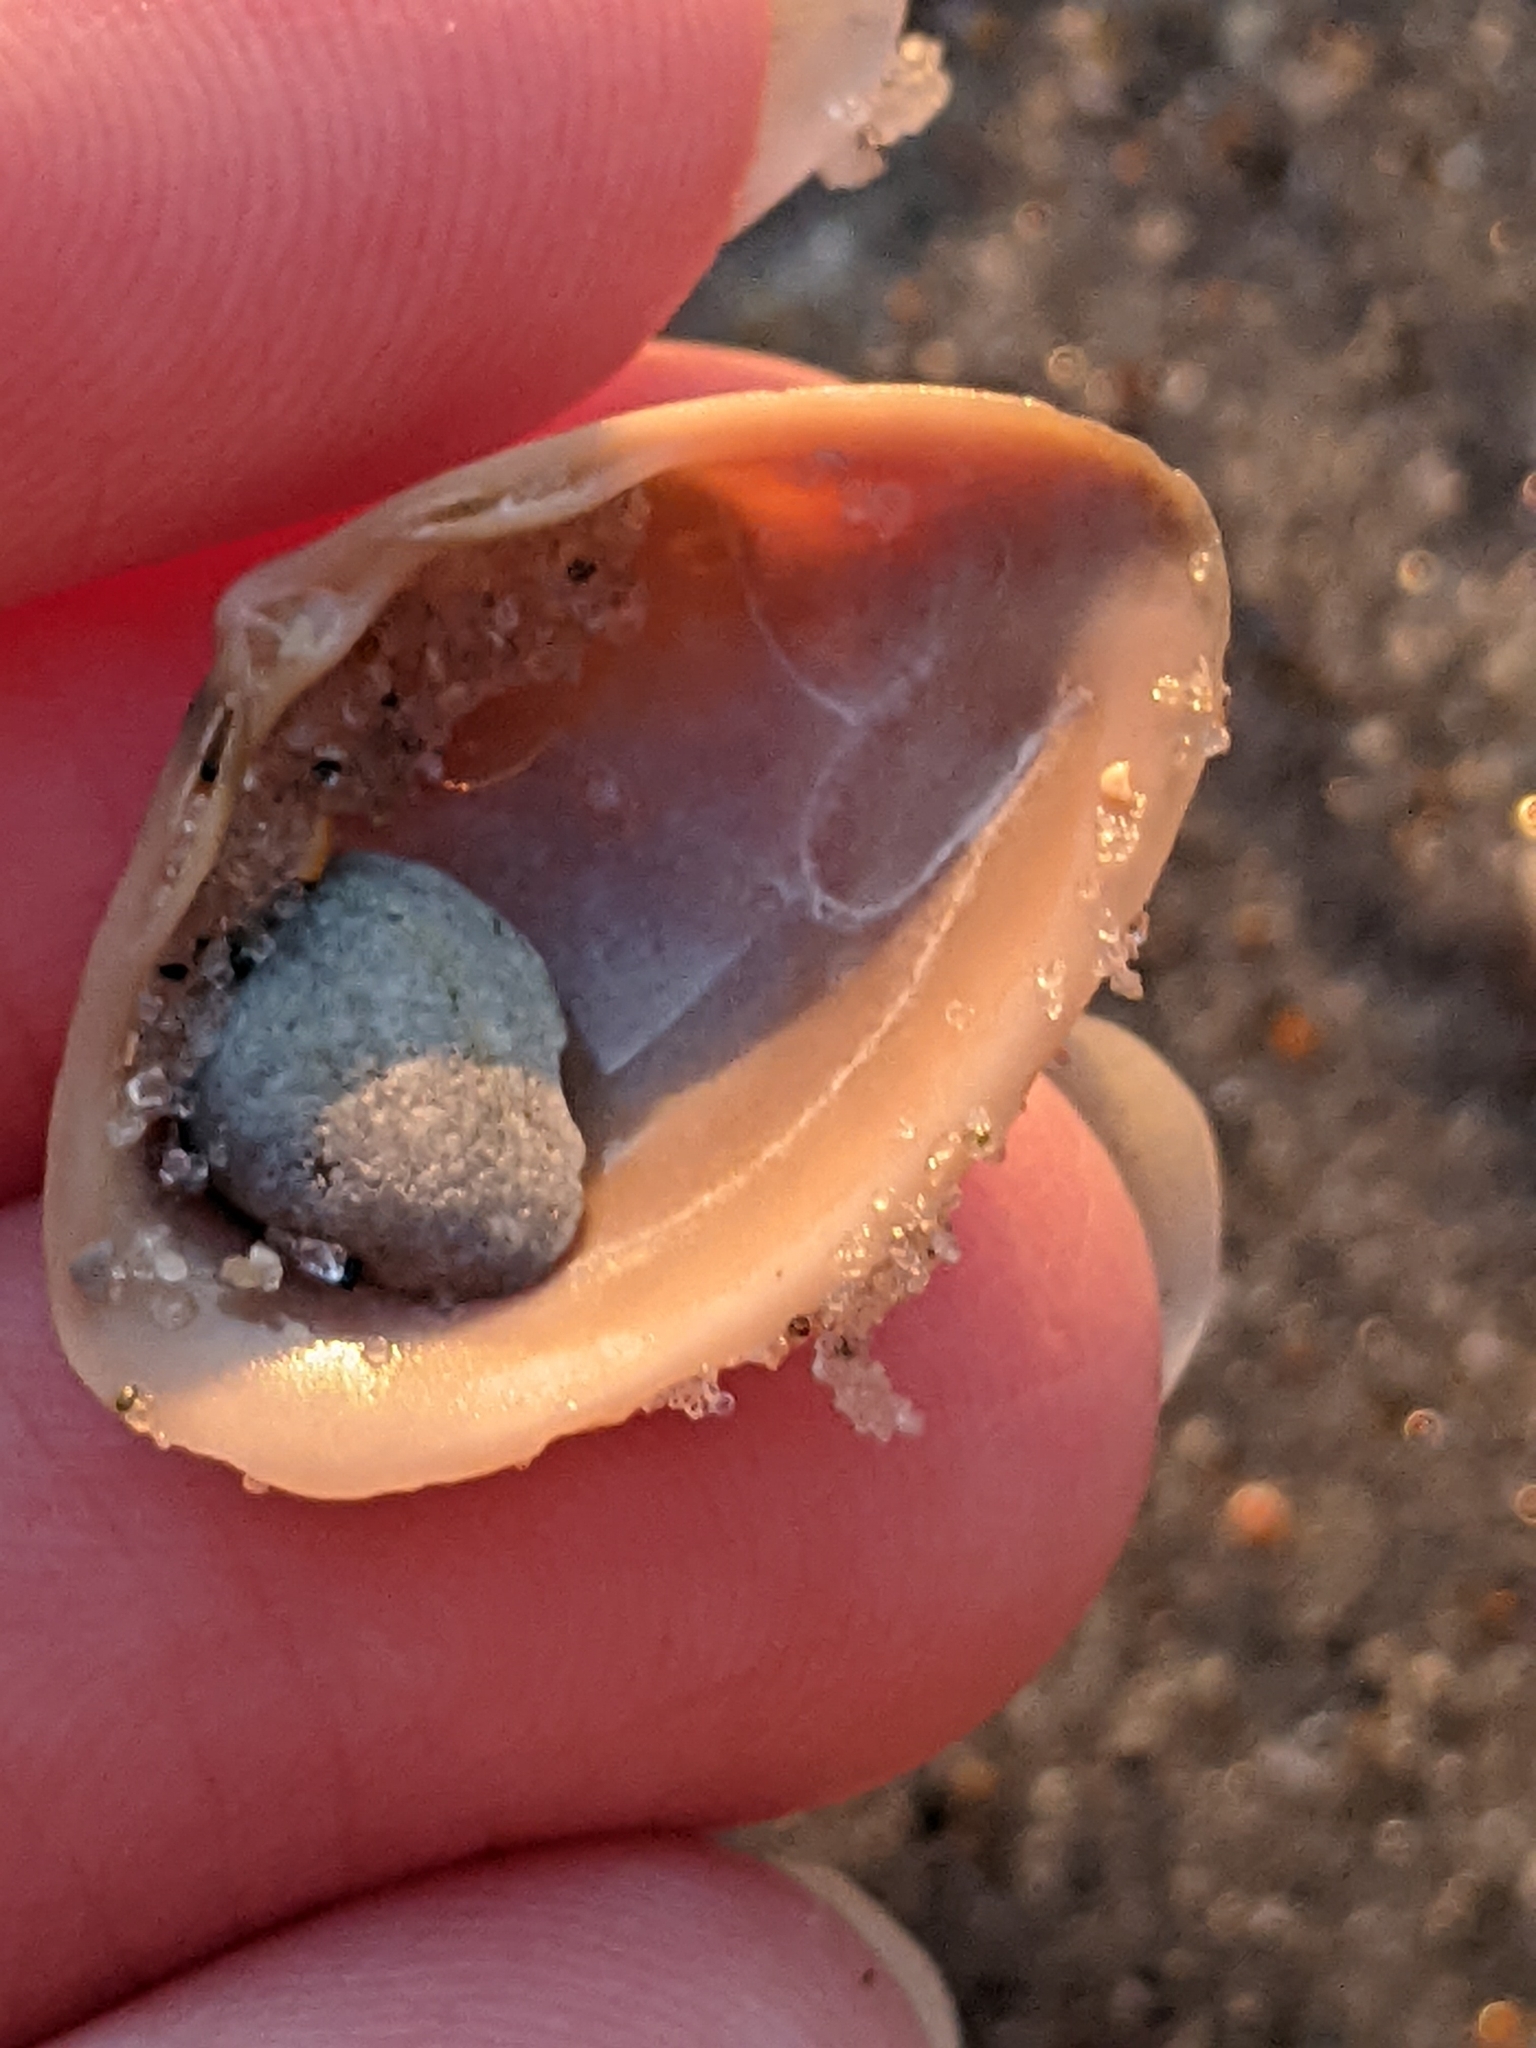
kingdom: Animalia
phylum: Mollusca
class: Bivalvia
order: Venerida
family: Mactridae
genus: Spisula
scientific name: Spisula raveneli
